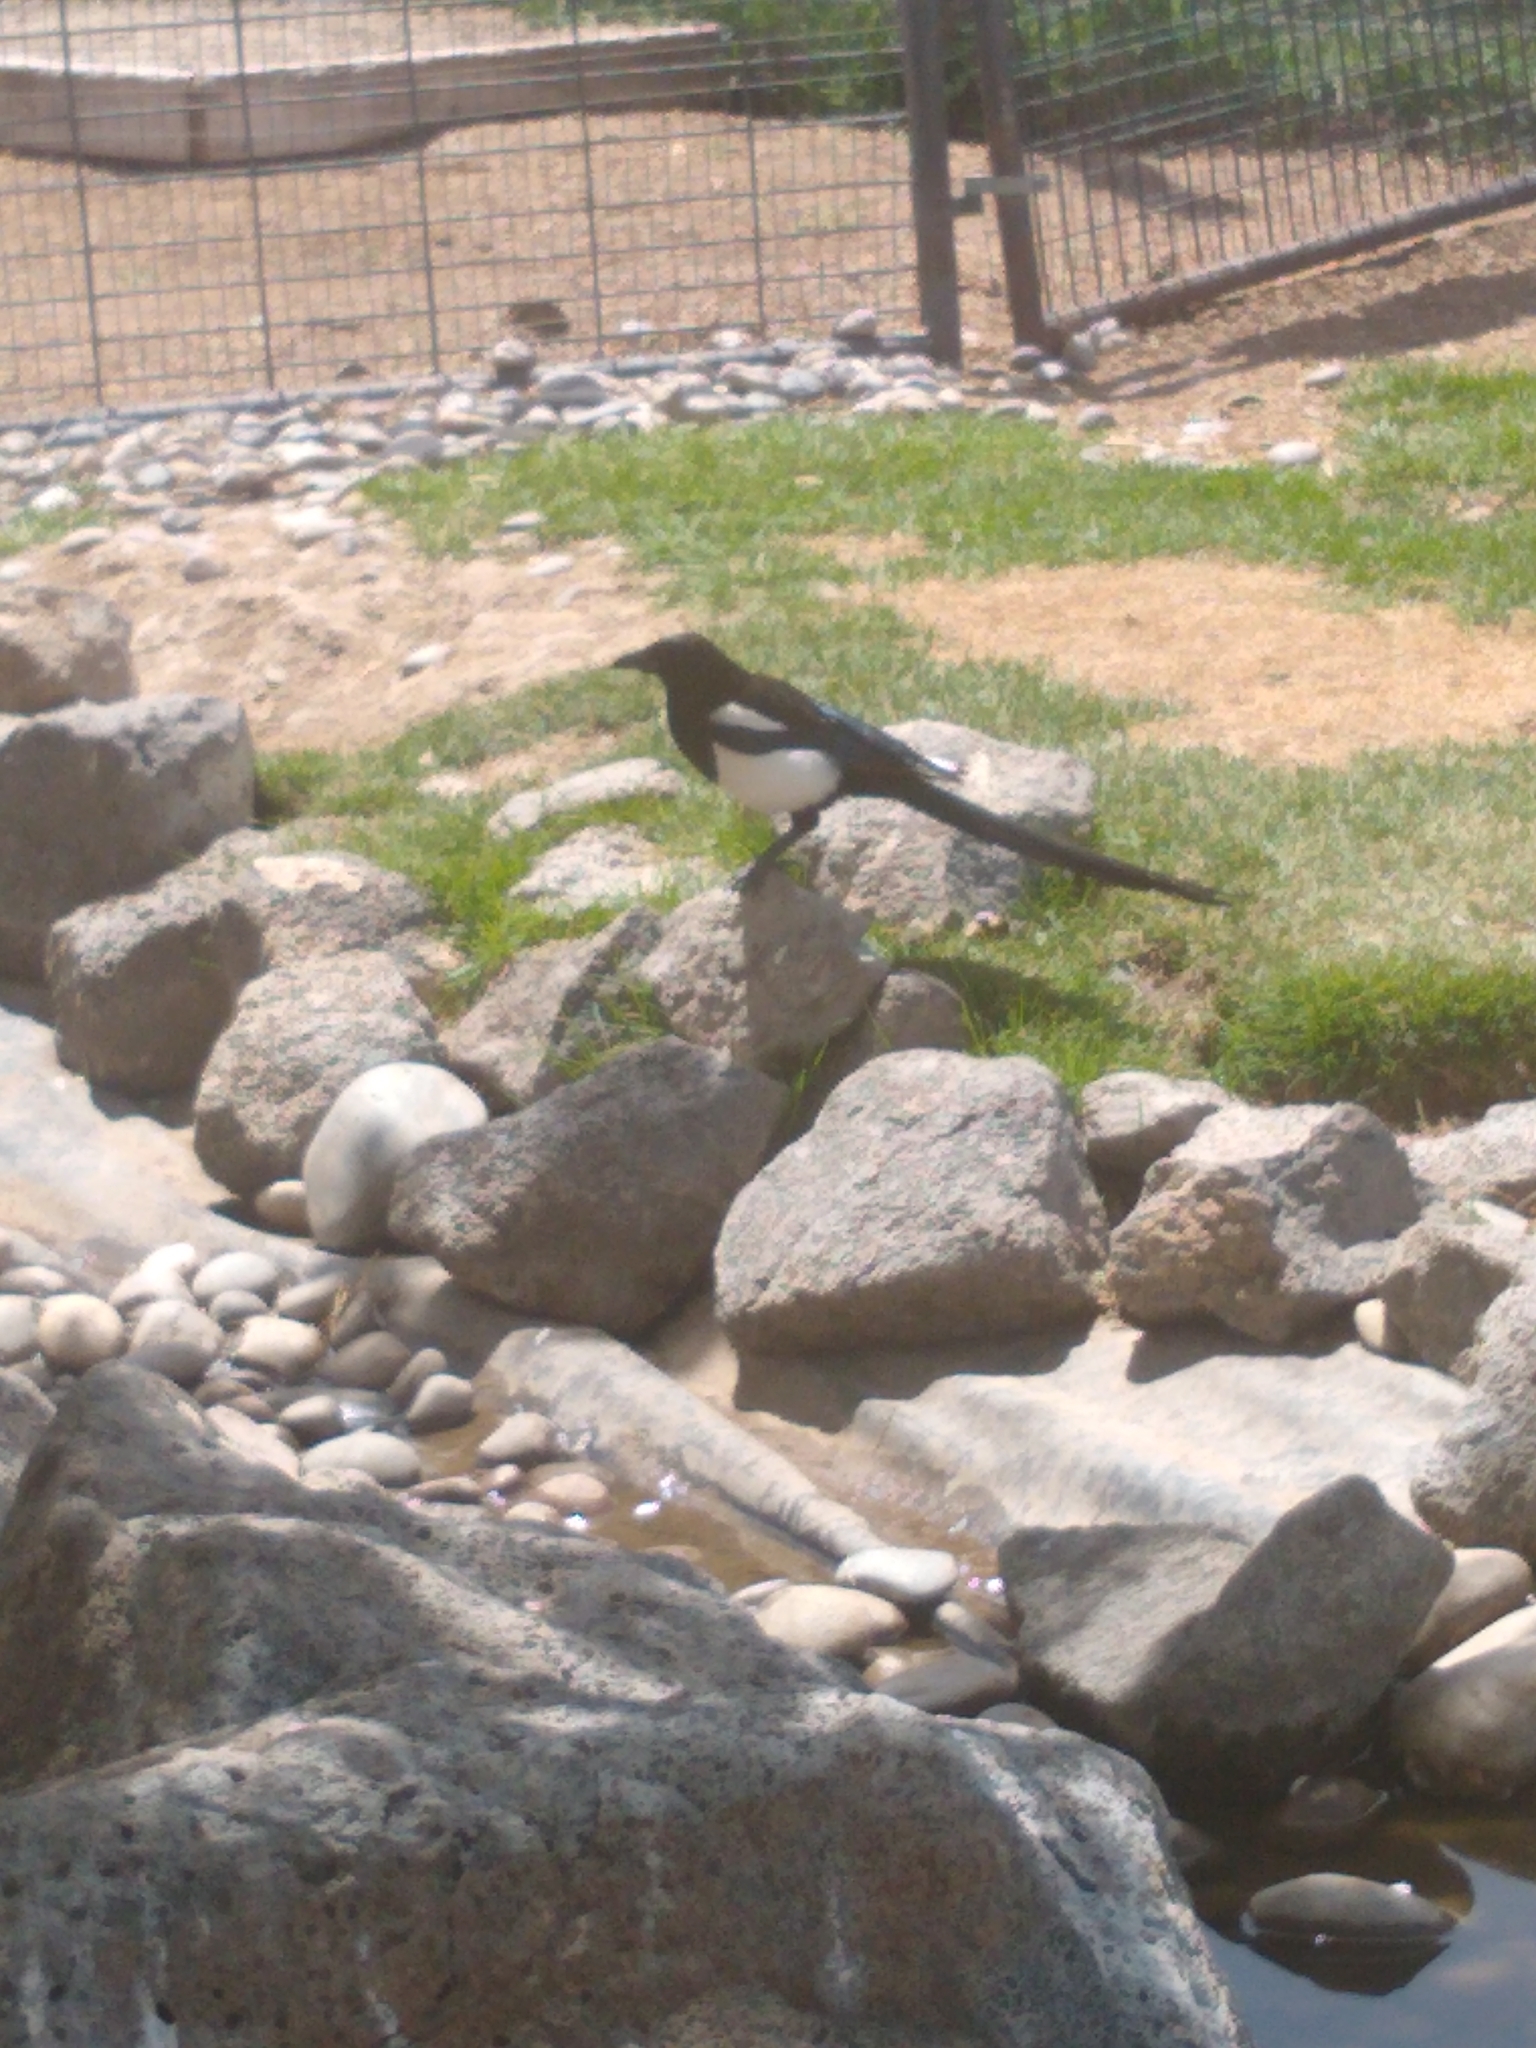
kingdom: Animalia
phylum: Chordata
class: Aves
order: Passeriformes
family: Corvidae
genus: Pica
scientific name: Pica hudsonia
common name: Black-billed magpie
